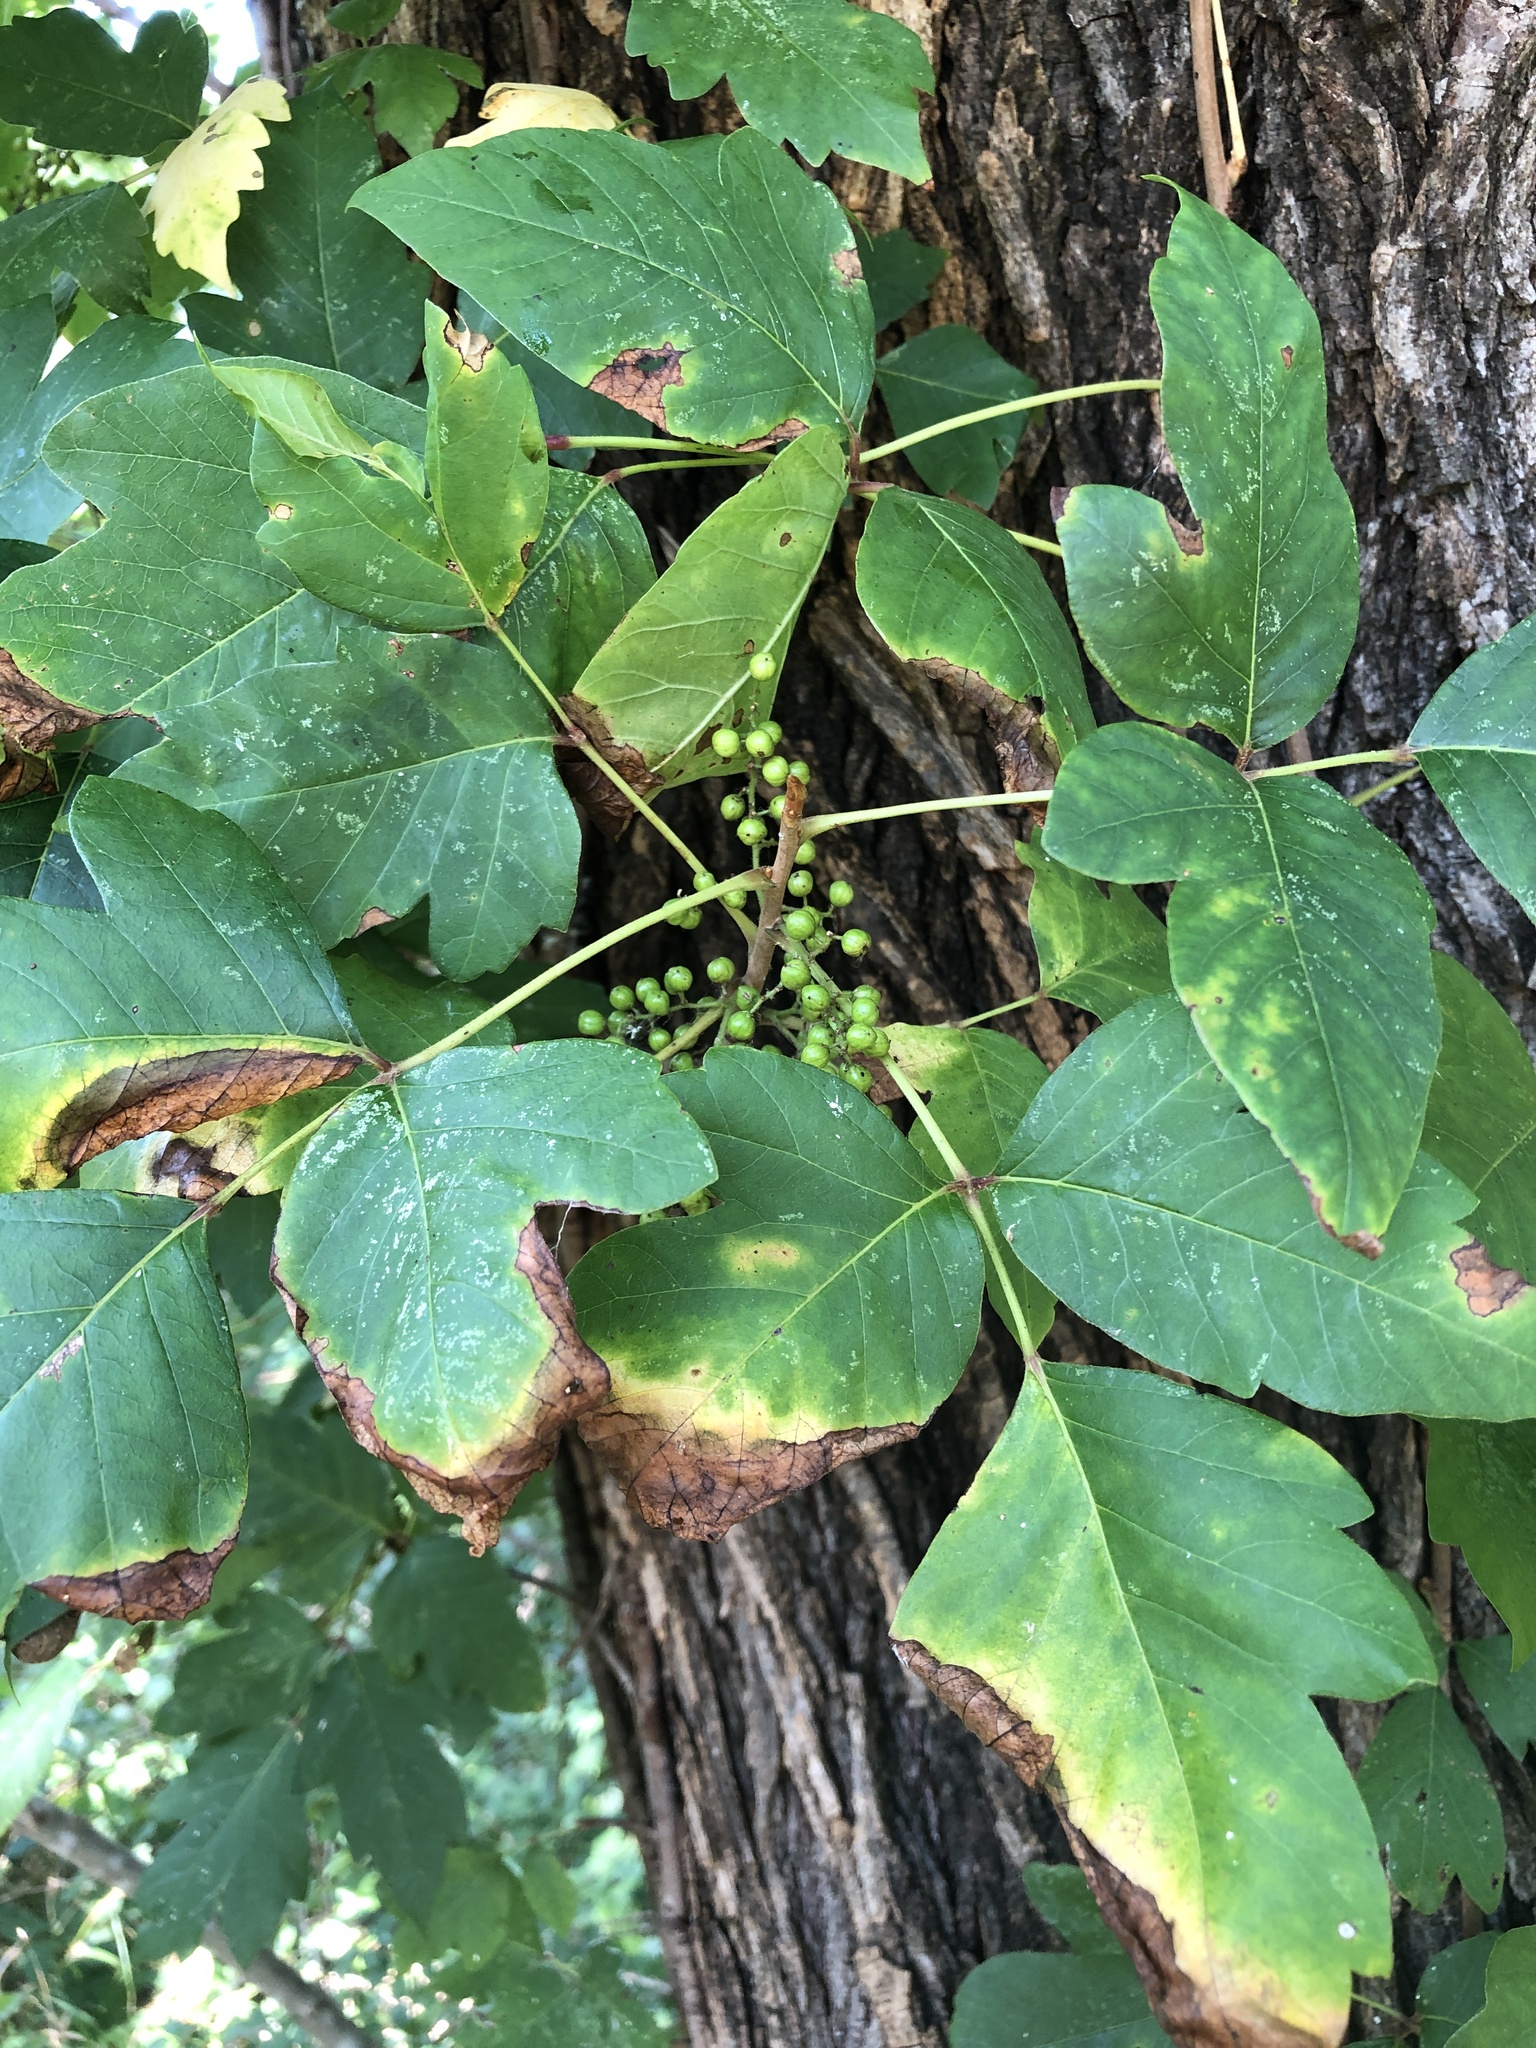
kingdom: Plantae
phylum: Tracheophyta
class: Magnoliopsida
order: Sapindales
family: Anacardiaceae
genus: Toxicodendron
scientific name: Toxicodendron radicans
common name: Poison ivy
